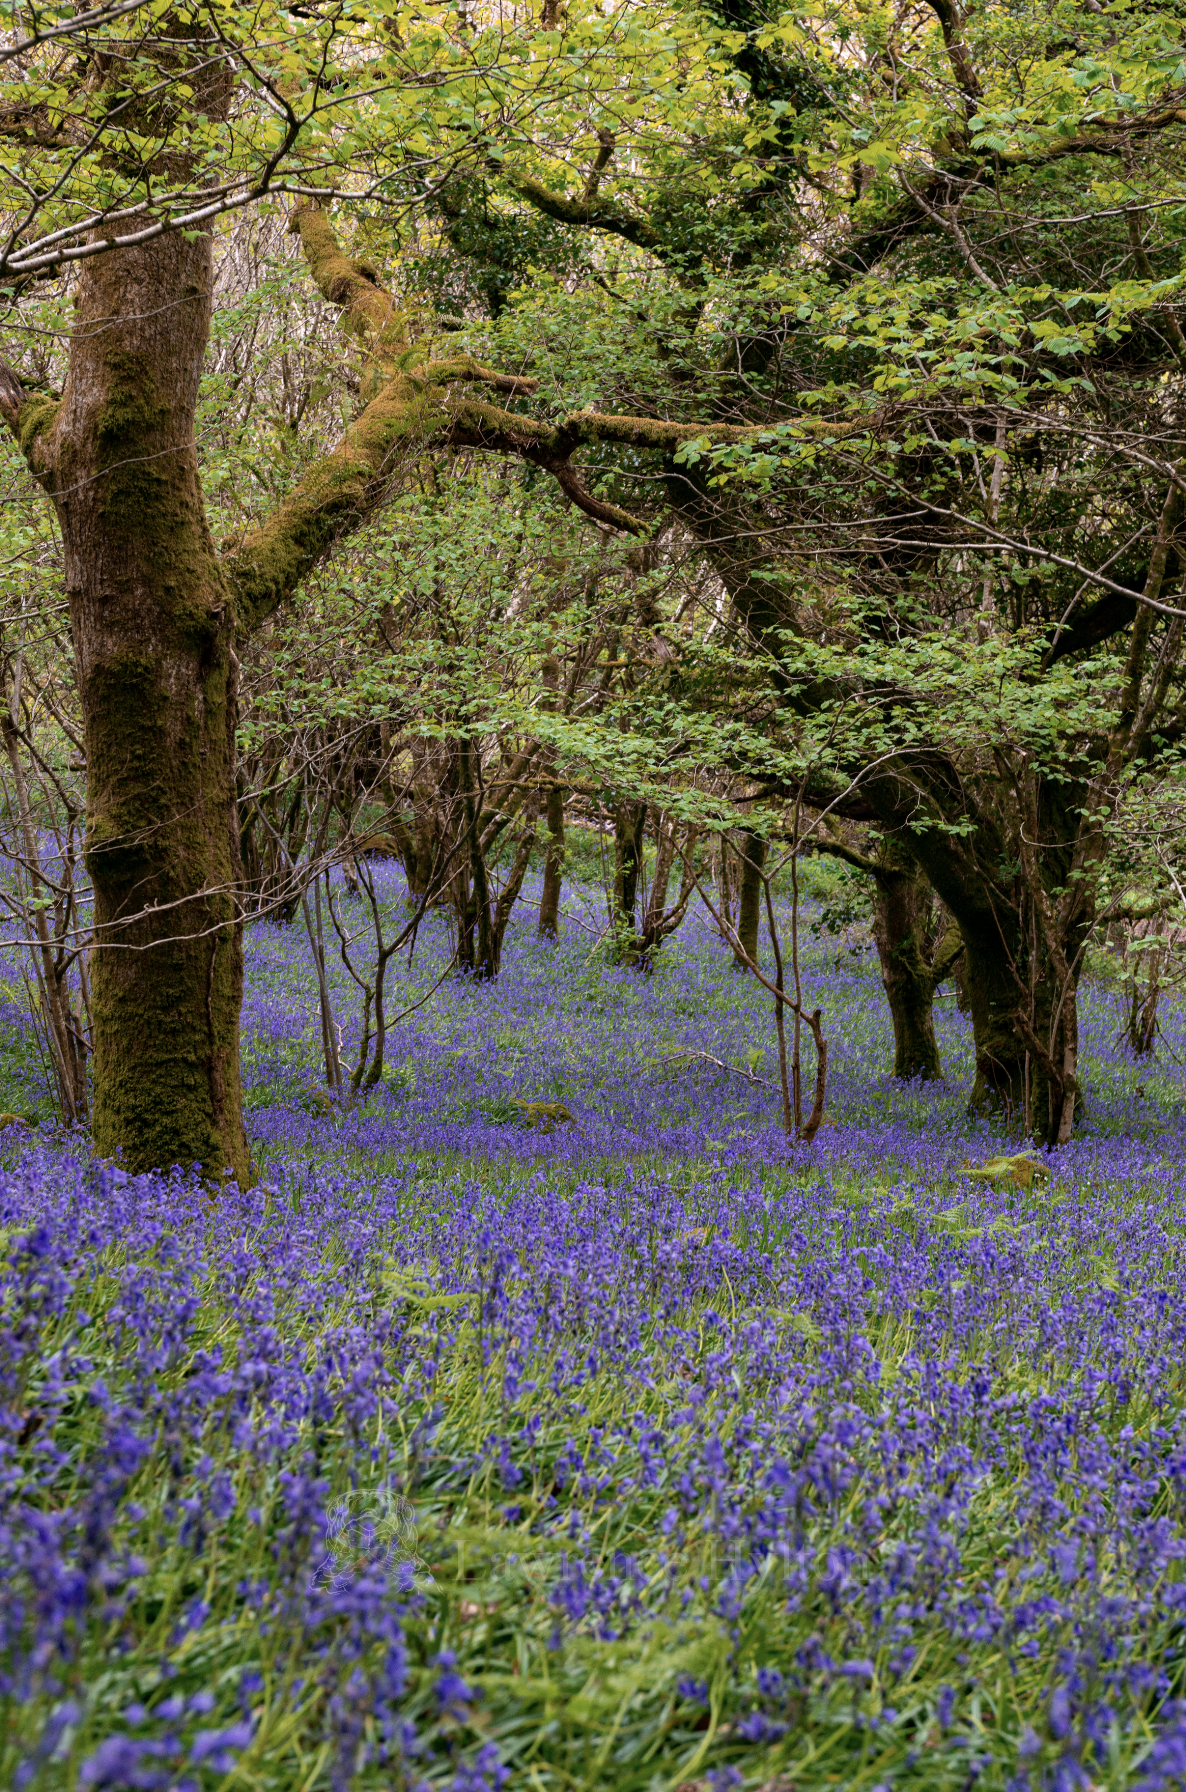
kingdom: Plantae
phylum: Tracheophyta
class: Liliopsida
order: Asparagales
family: Asparagaceae
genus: Hyacinthoides
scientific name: Hyacinthoides non-scripta
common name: Bluebell
